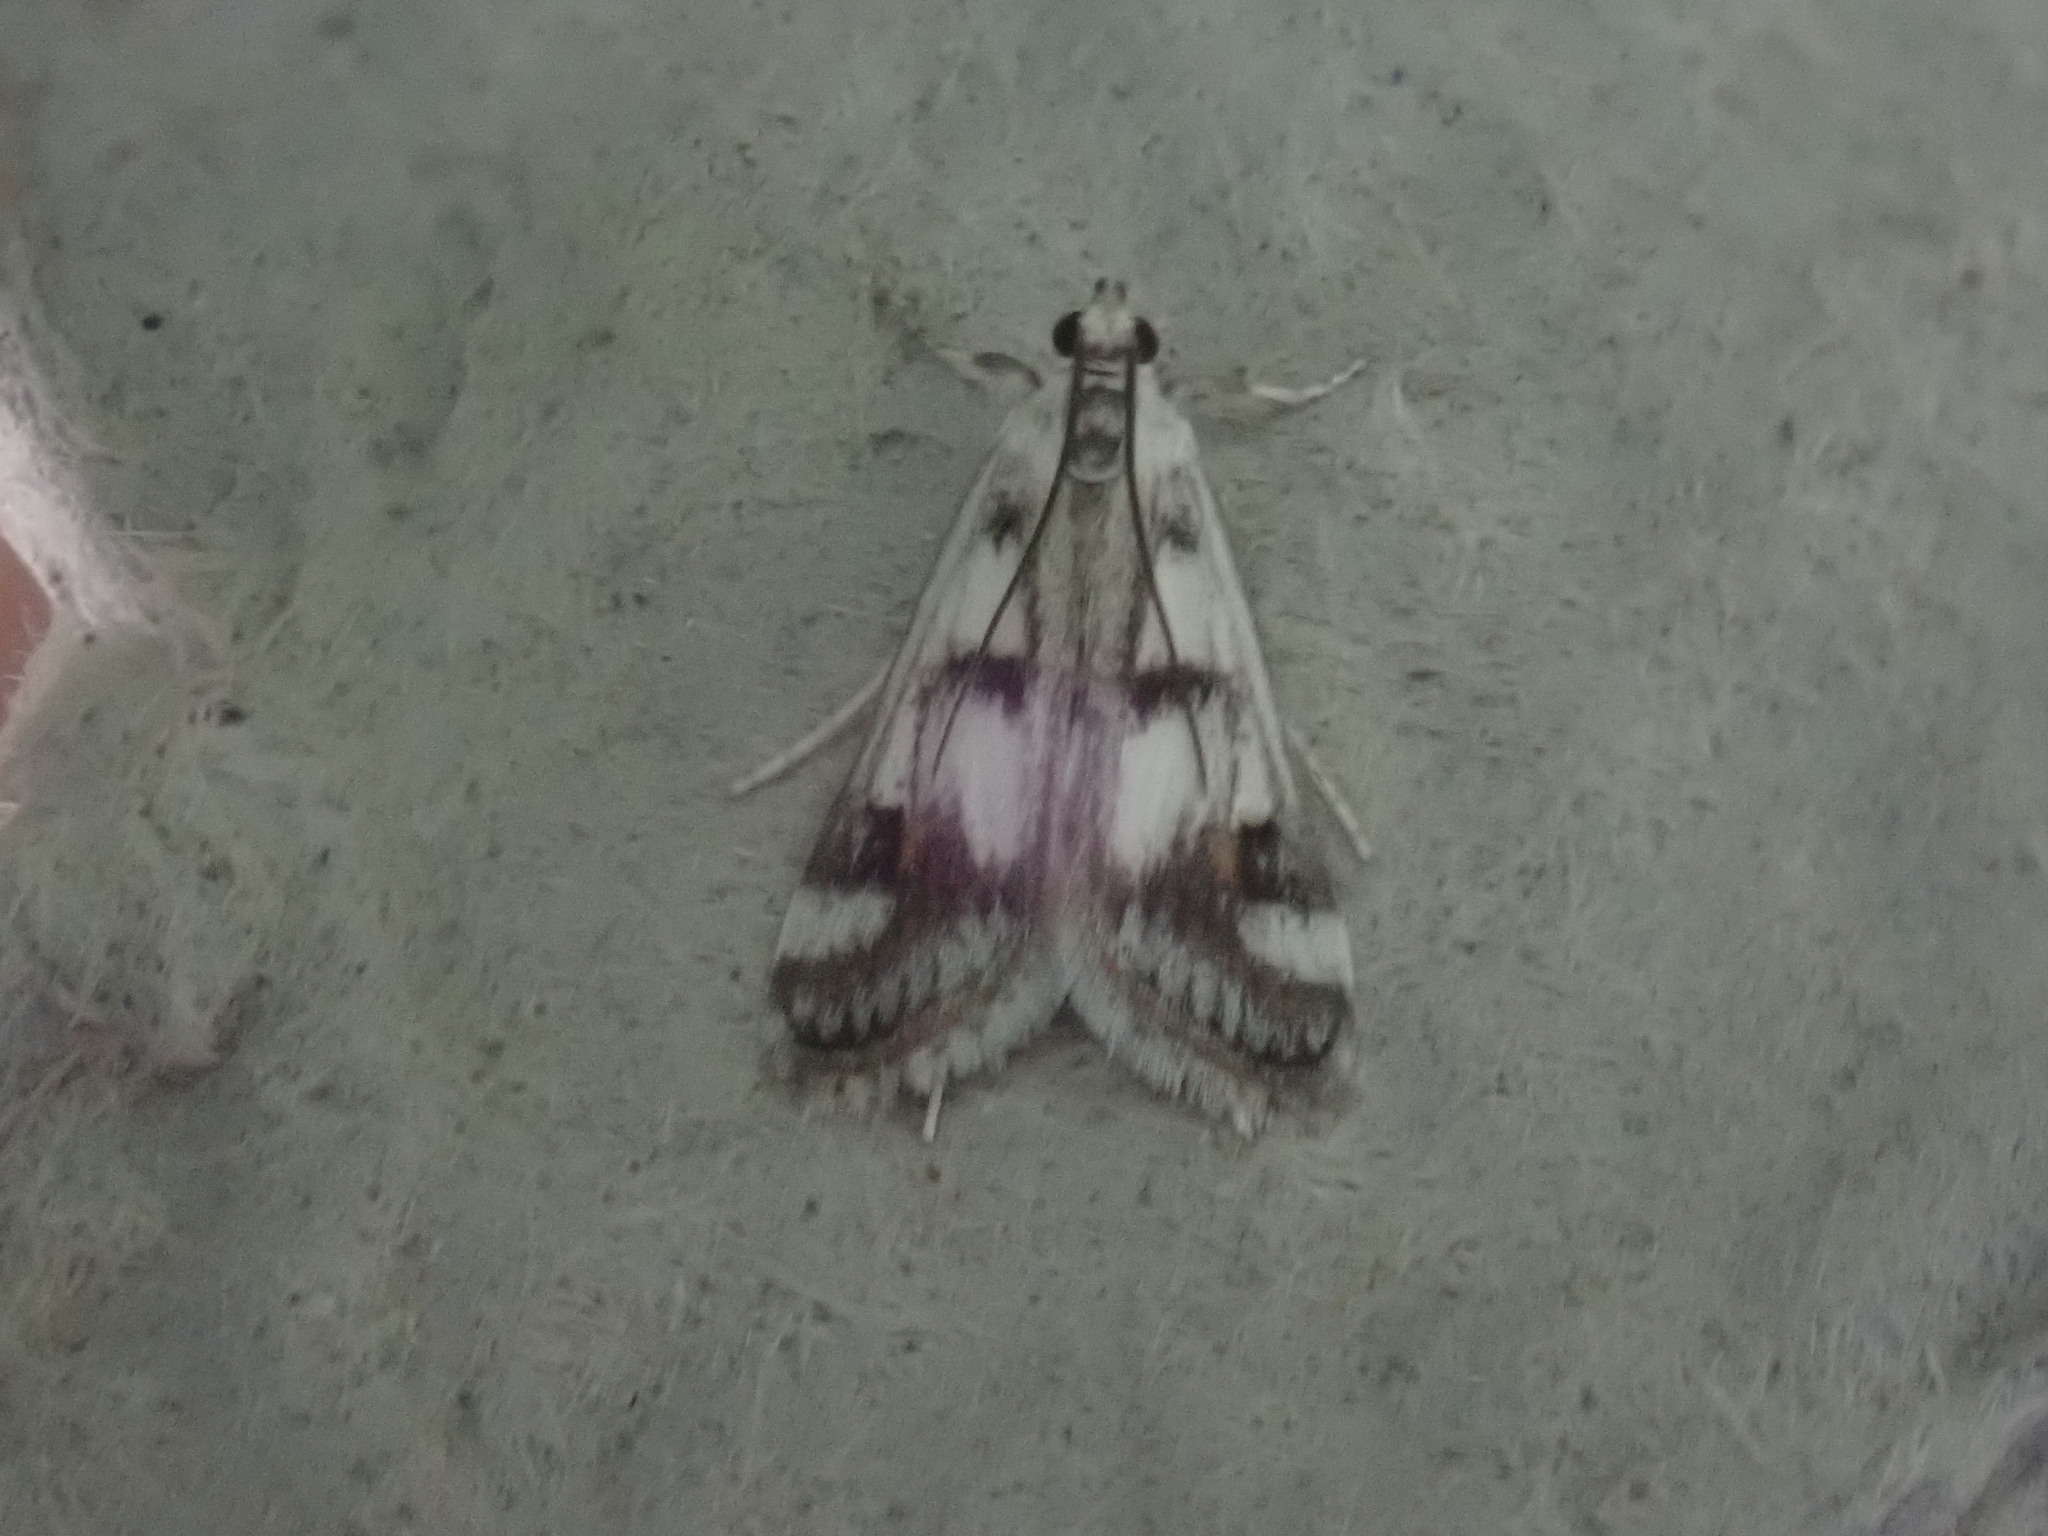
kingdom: Animalia
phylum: Arthropoda
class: Insecta
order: Lepidoptera
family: Crambidae
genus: Parapoynx
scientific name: Parapoynx maculalis
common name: Polymorphic pondweed moth
